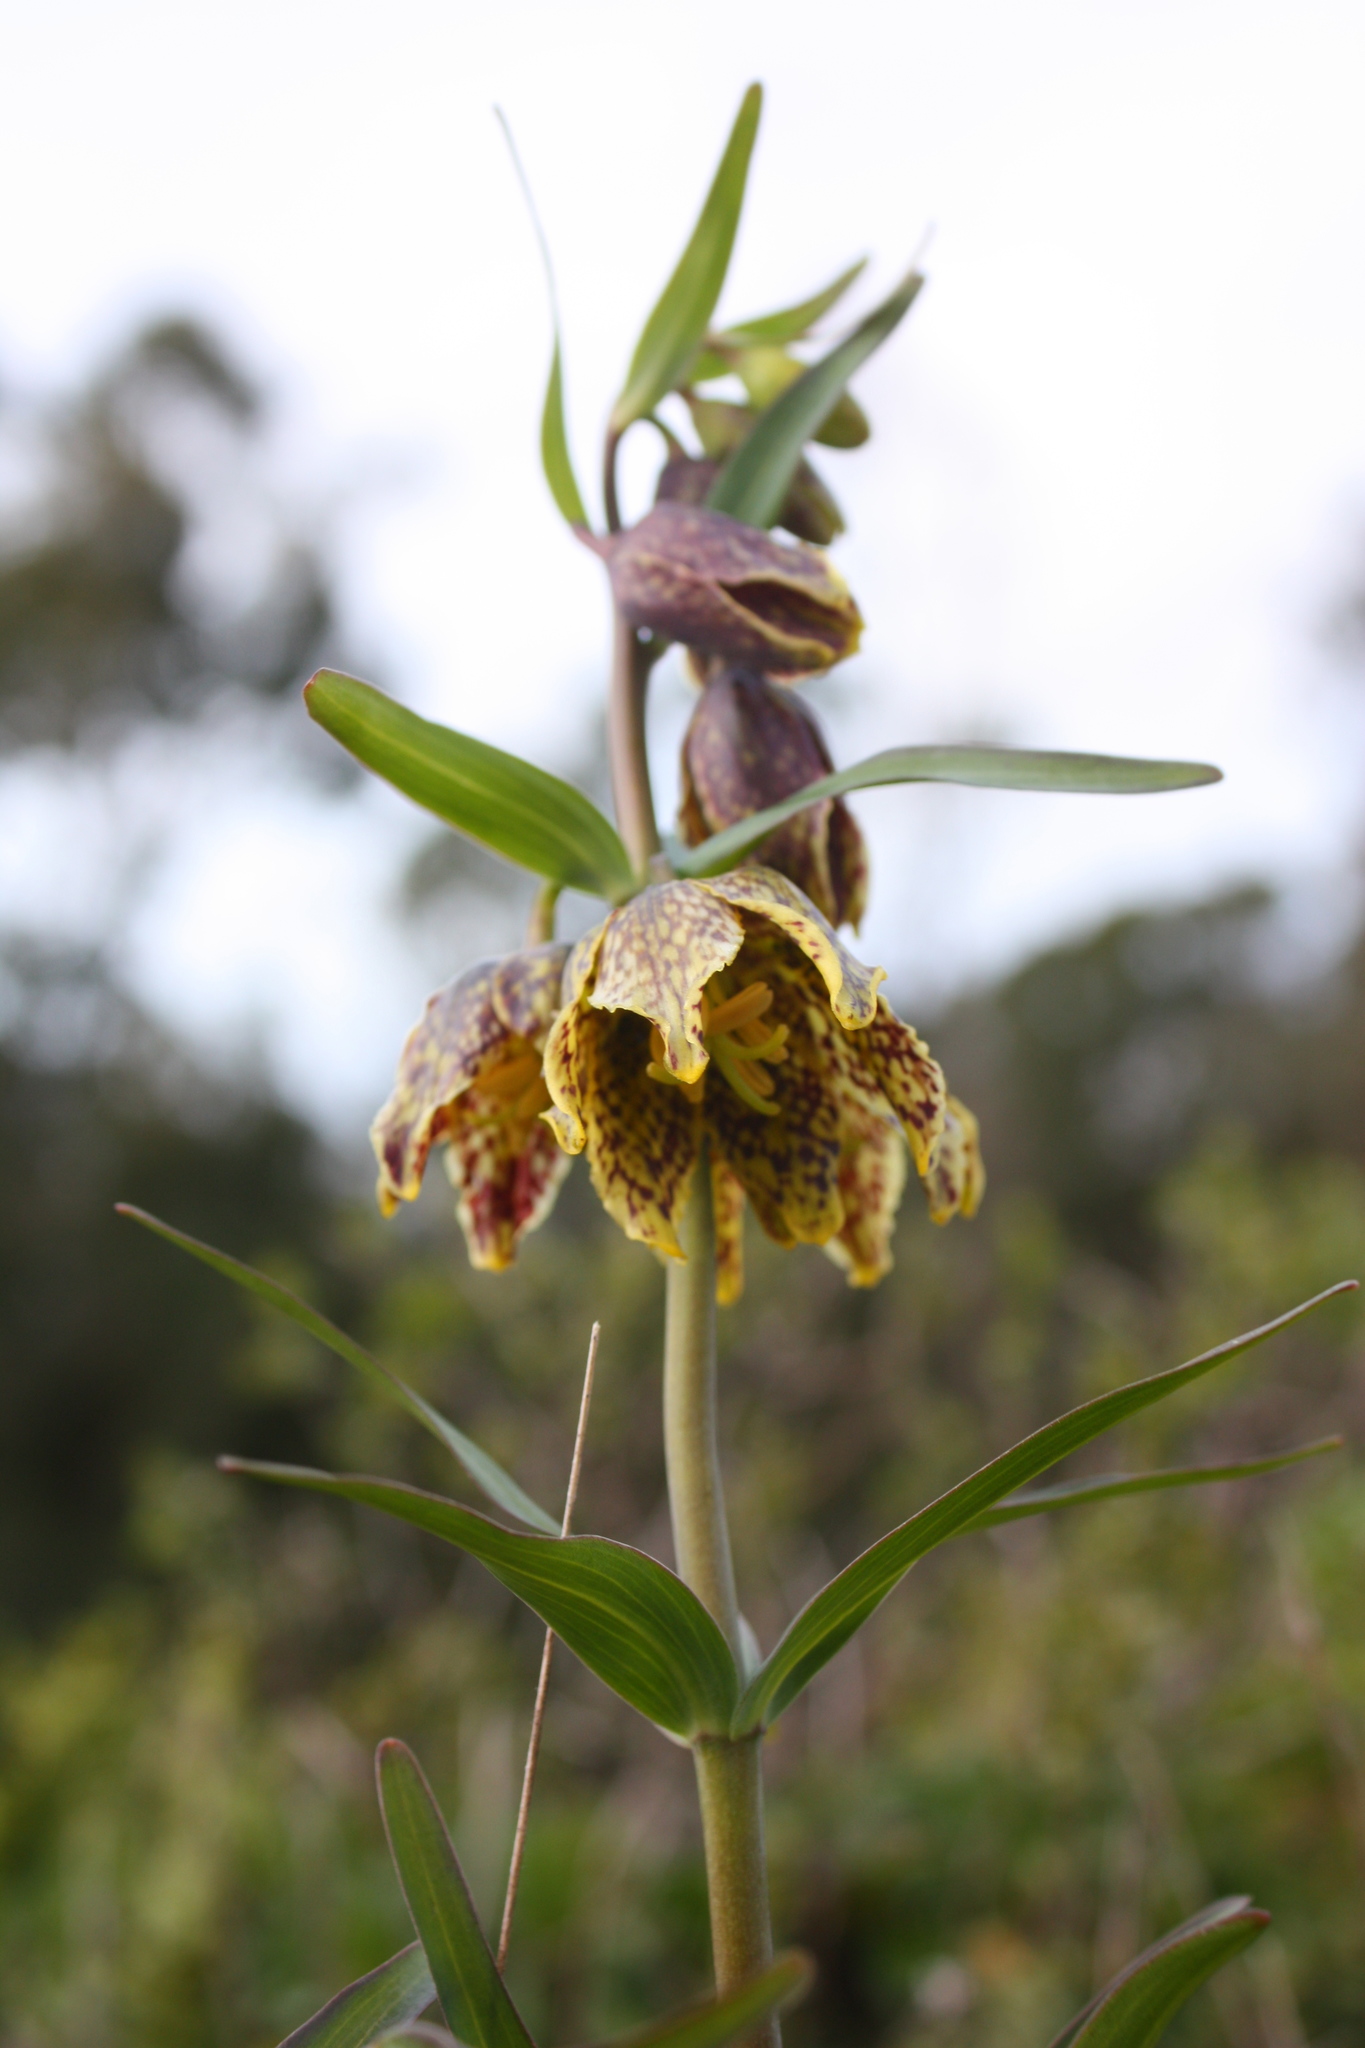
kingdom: Plantae
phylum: Tracheophyta
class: Liliopsida
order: Liliales
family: Liliaceae
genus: Fritillaria
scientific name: Fritillaria affinis
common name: Ojai fritillary
